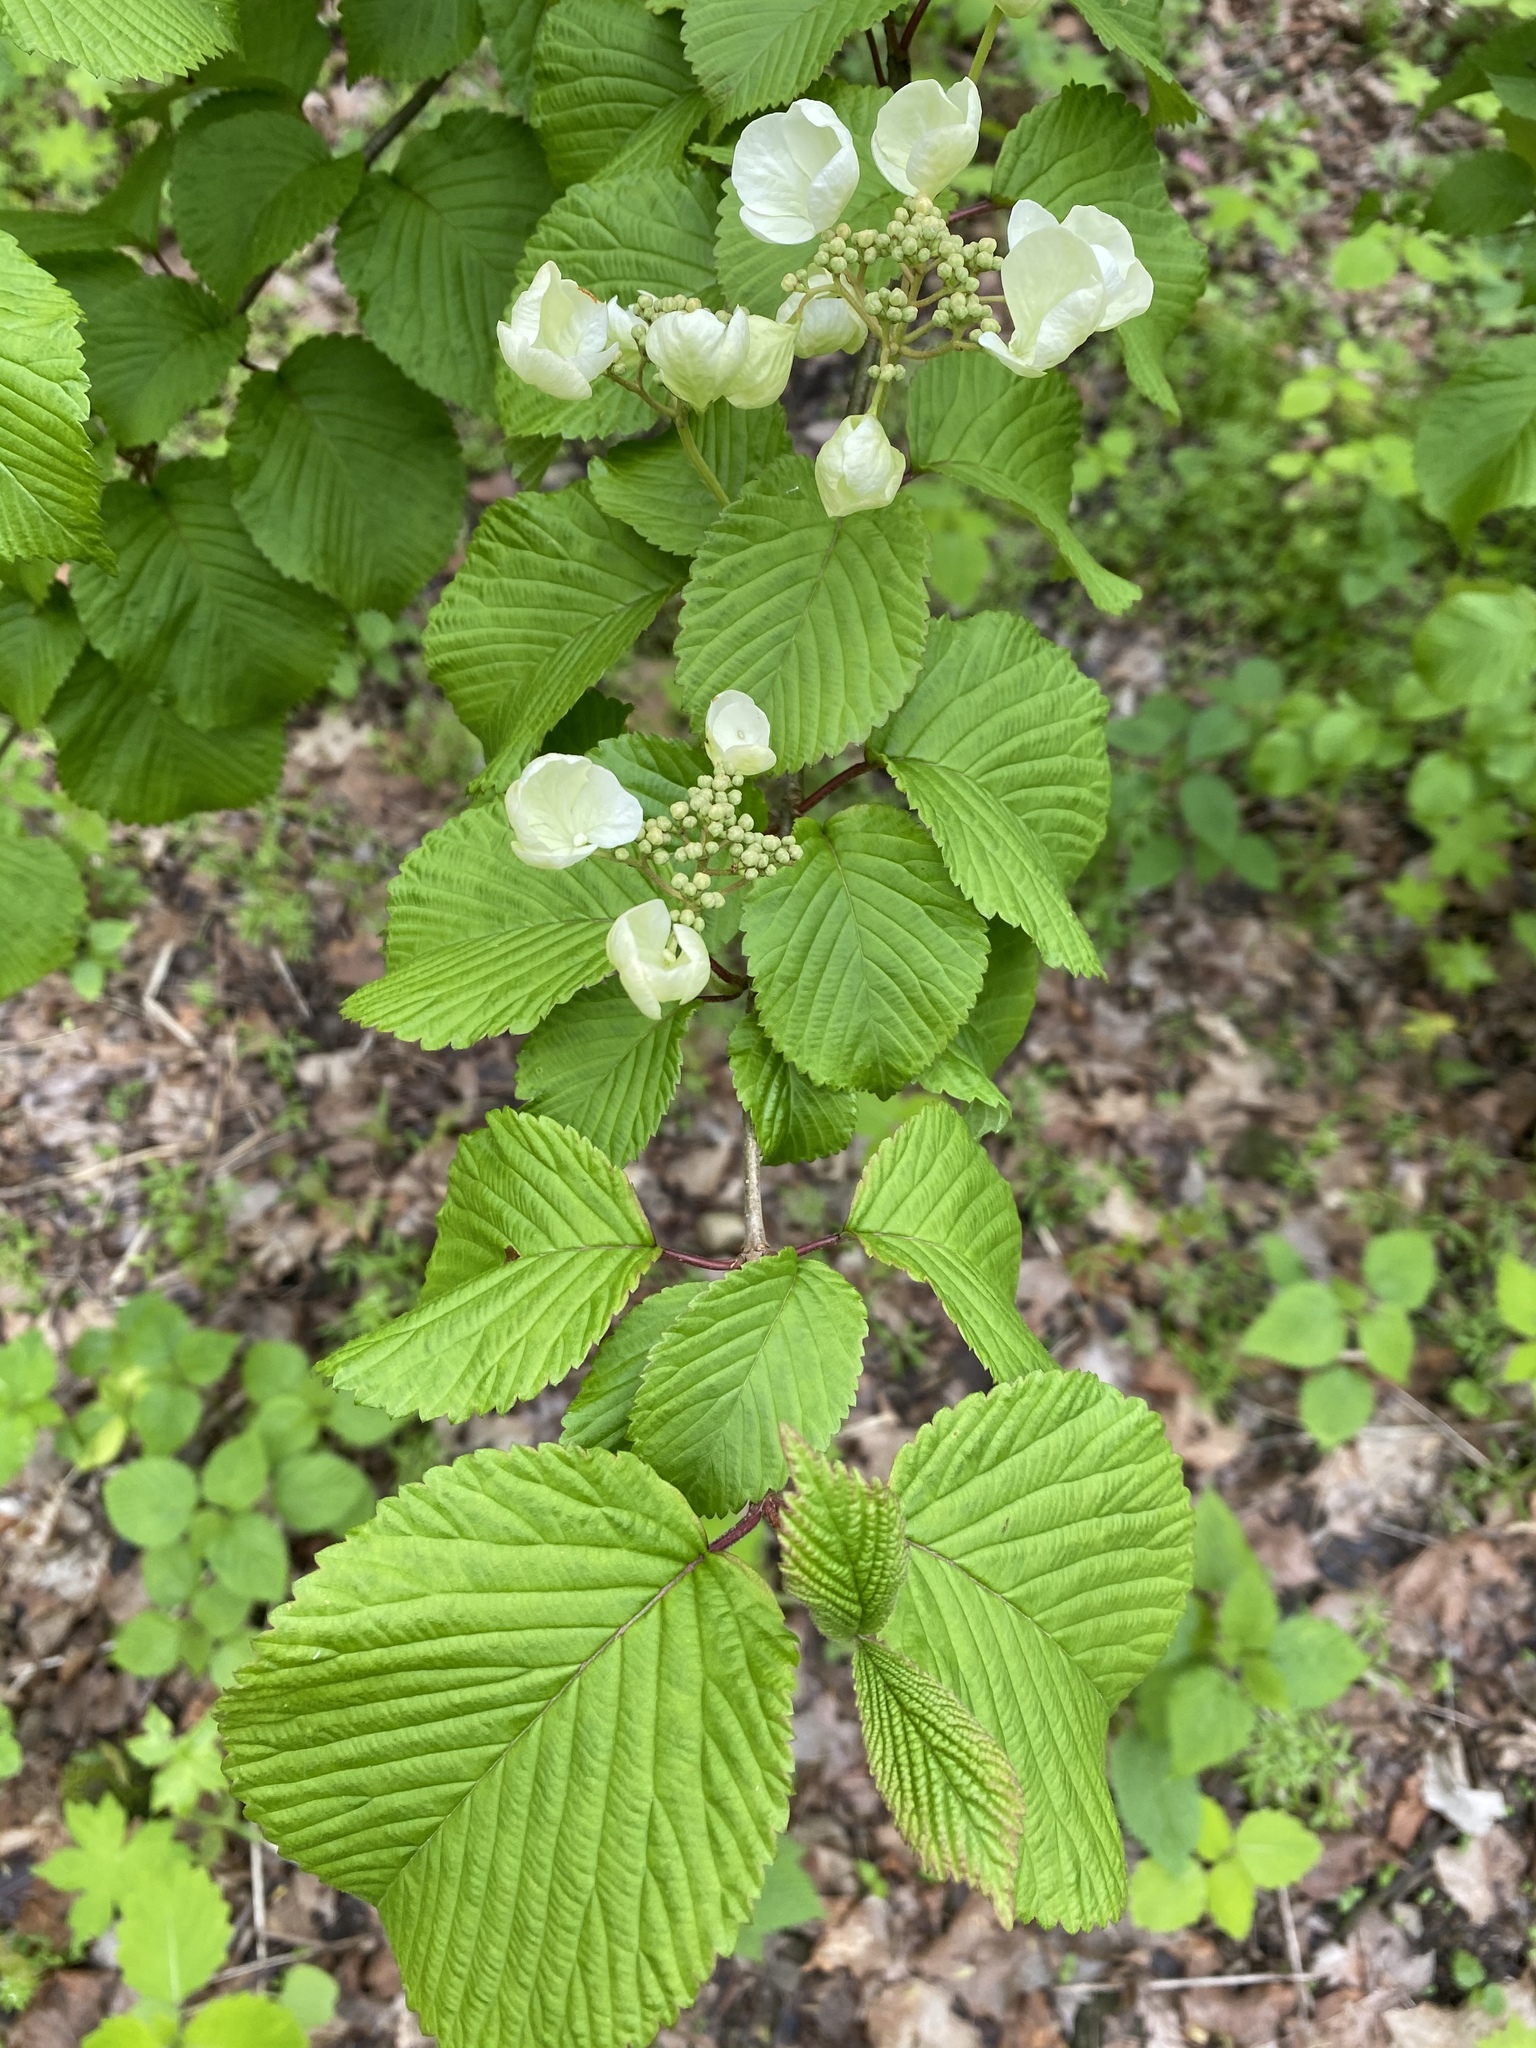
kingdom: Plantae
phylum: Tracheophyta
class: Magnoliopsida
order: Dipsacales
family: Viburnaceae
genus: Viburnum
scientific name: Viburnum plicatum
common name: Japanese snowball
